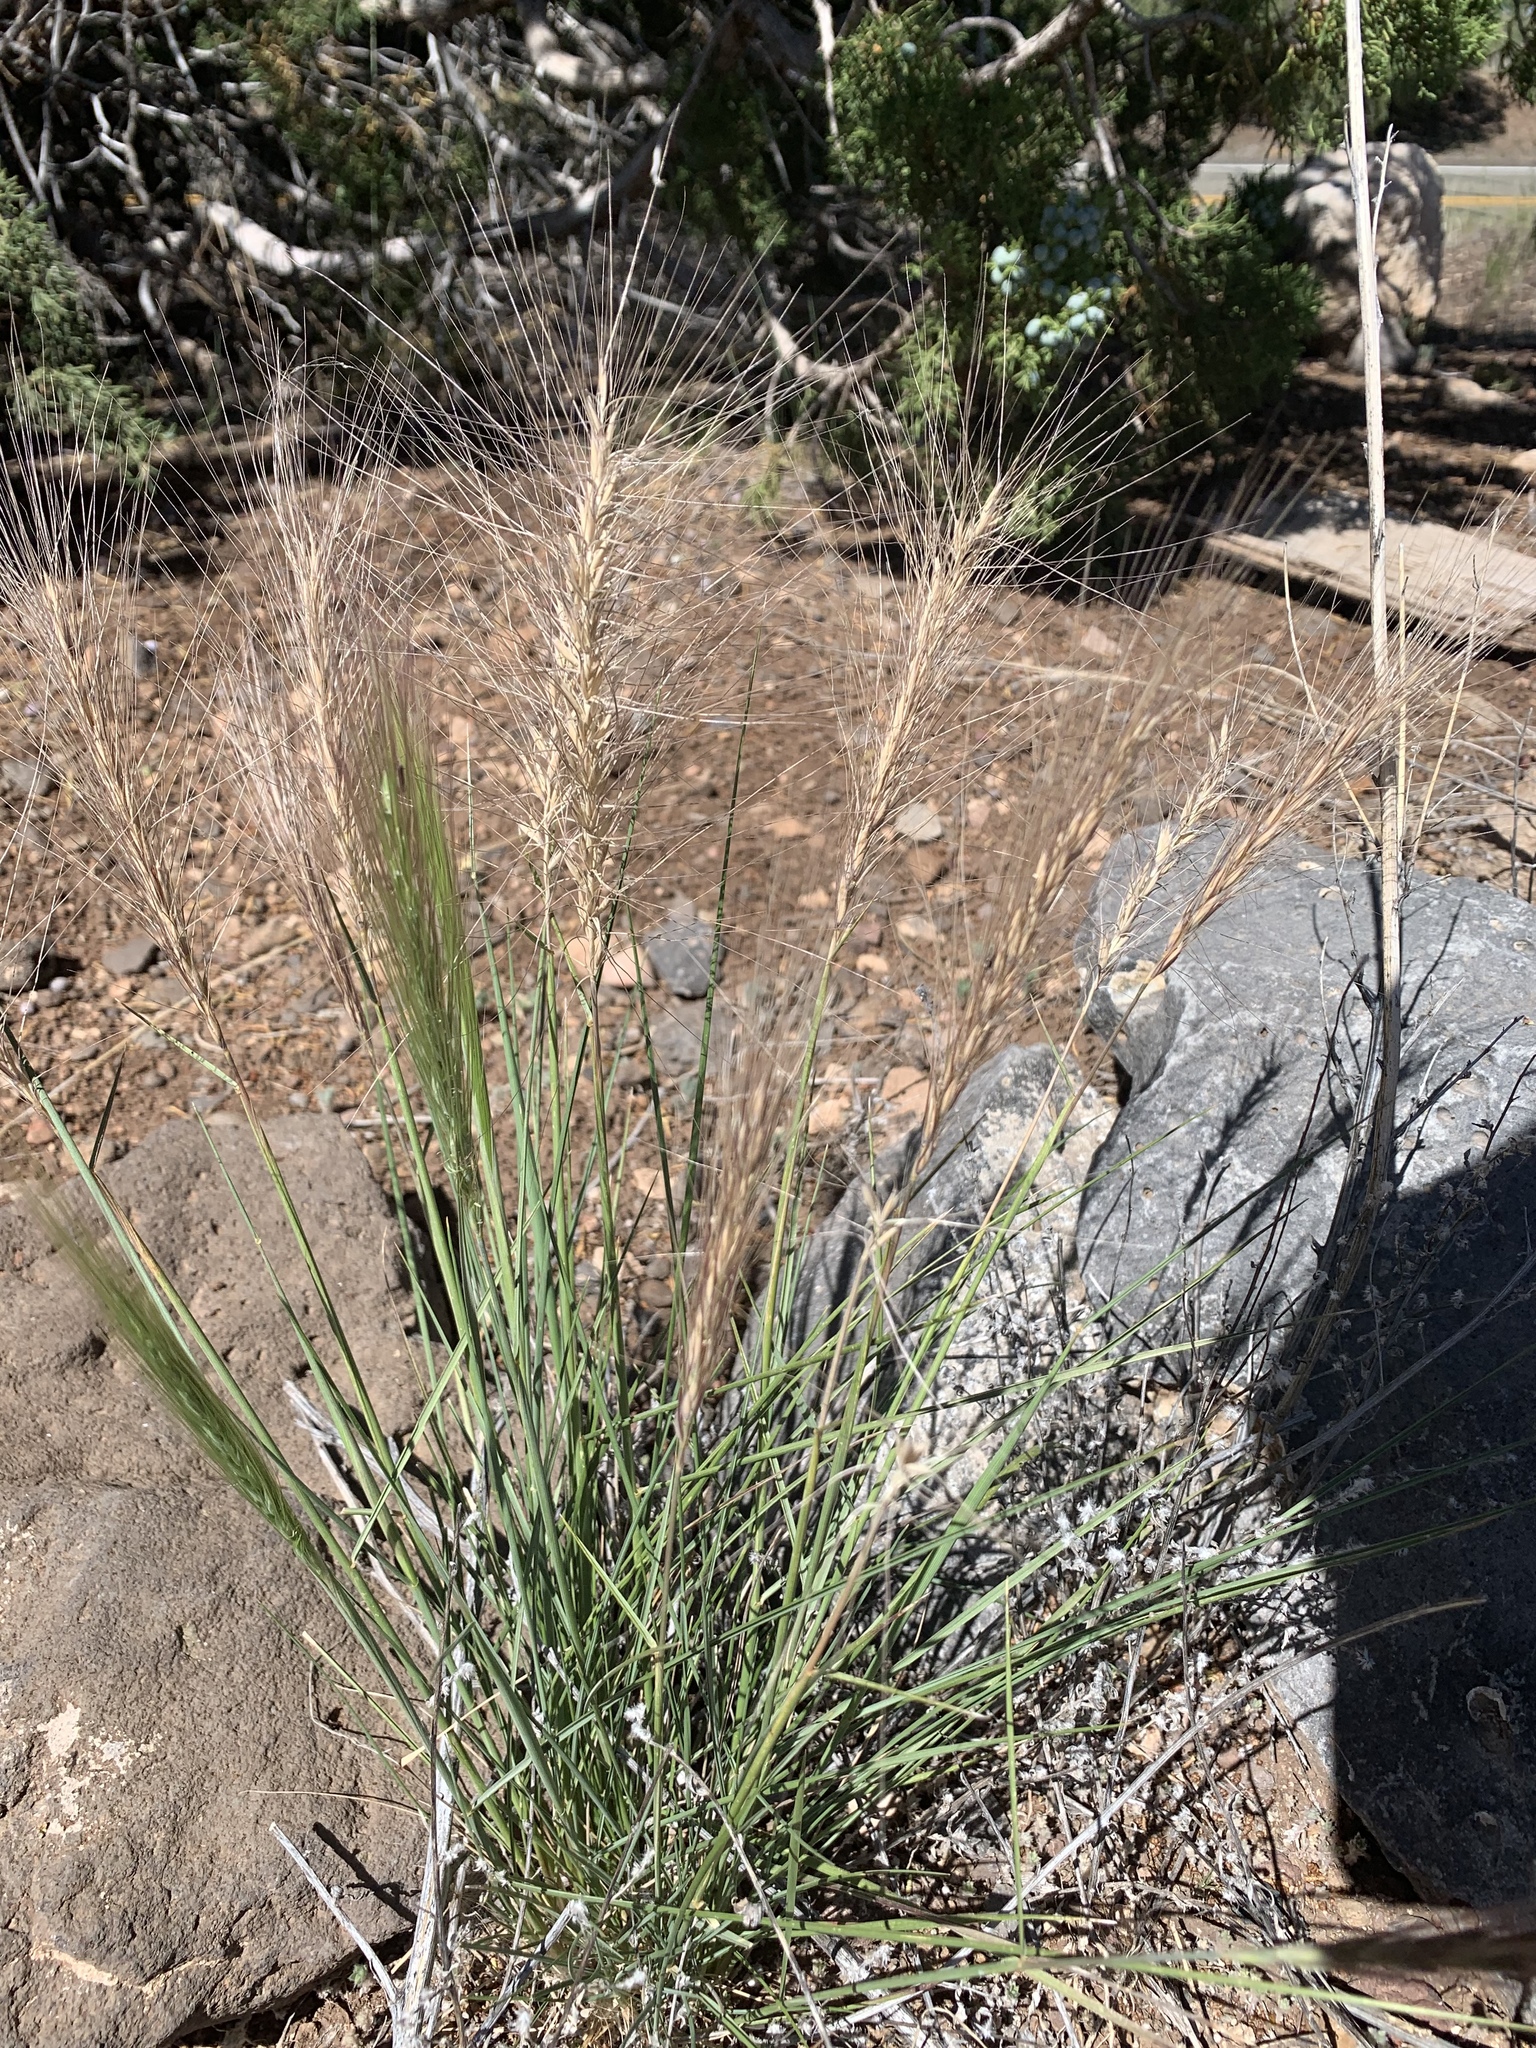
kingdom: Plantae
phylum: Tracheophyta
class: Liliopsida
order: Poales
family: Poaceae
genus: Elymus
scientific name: Elymus elymoides
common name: Bottlebrush squirreltail
